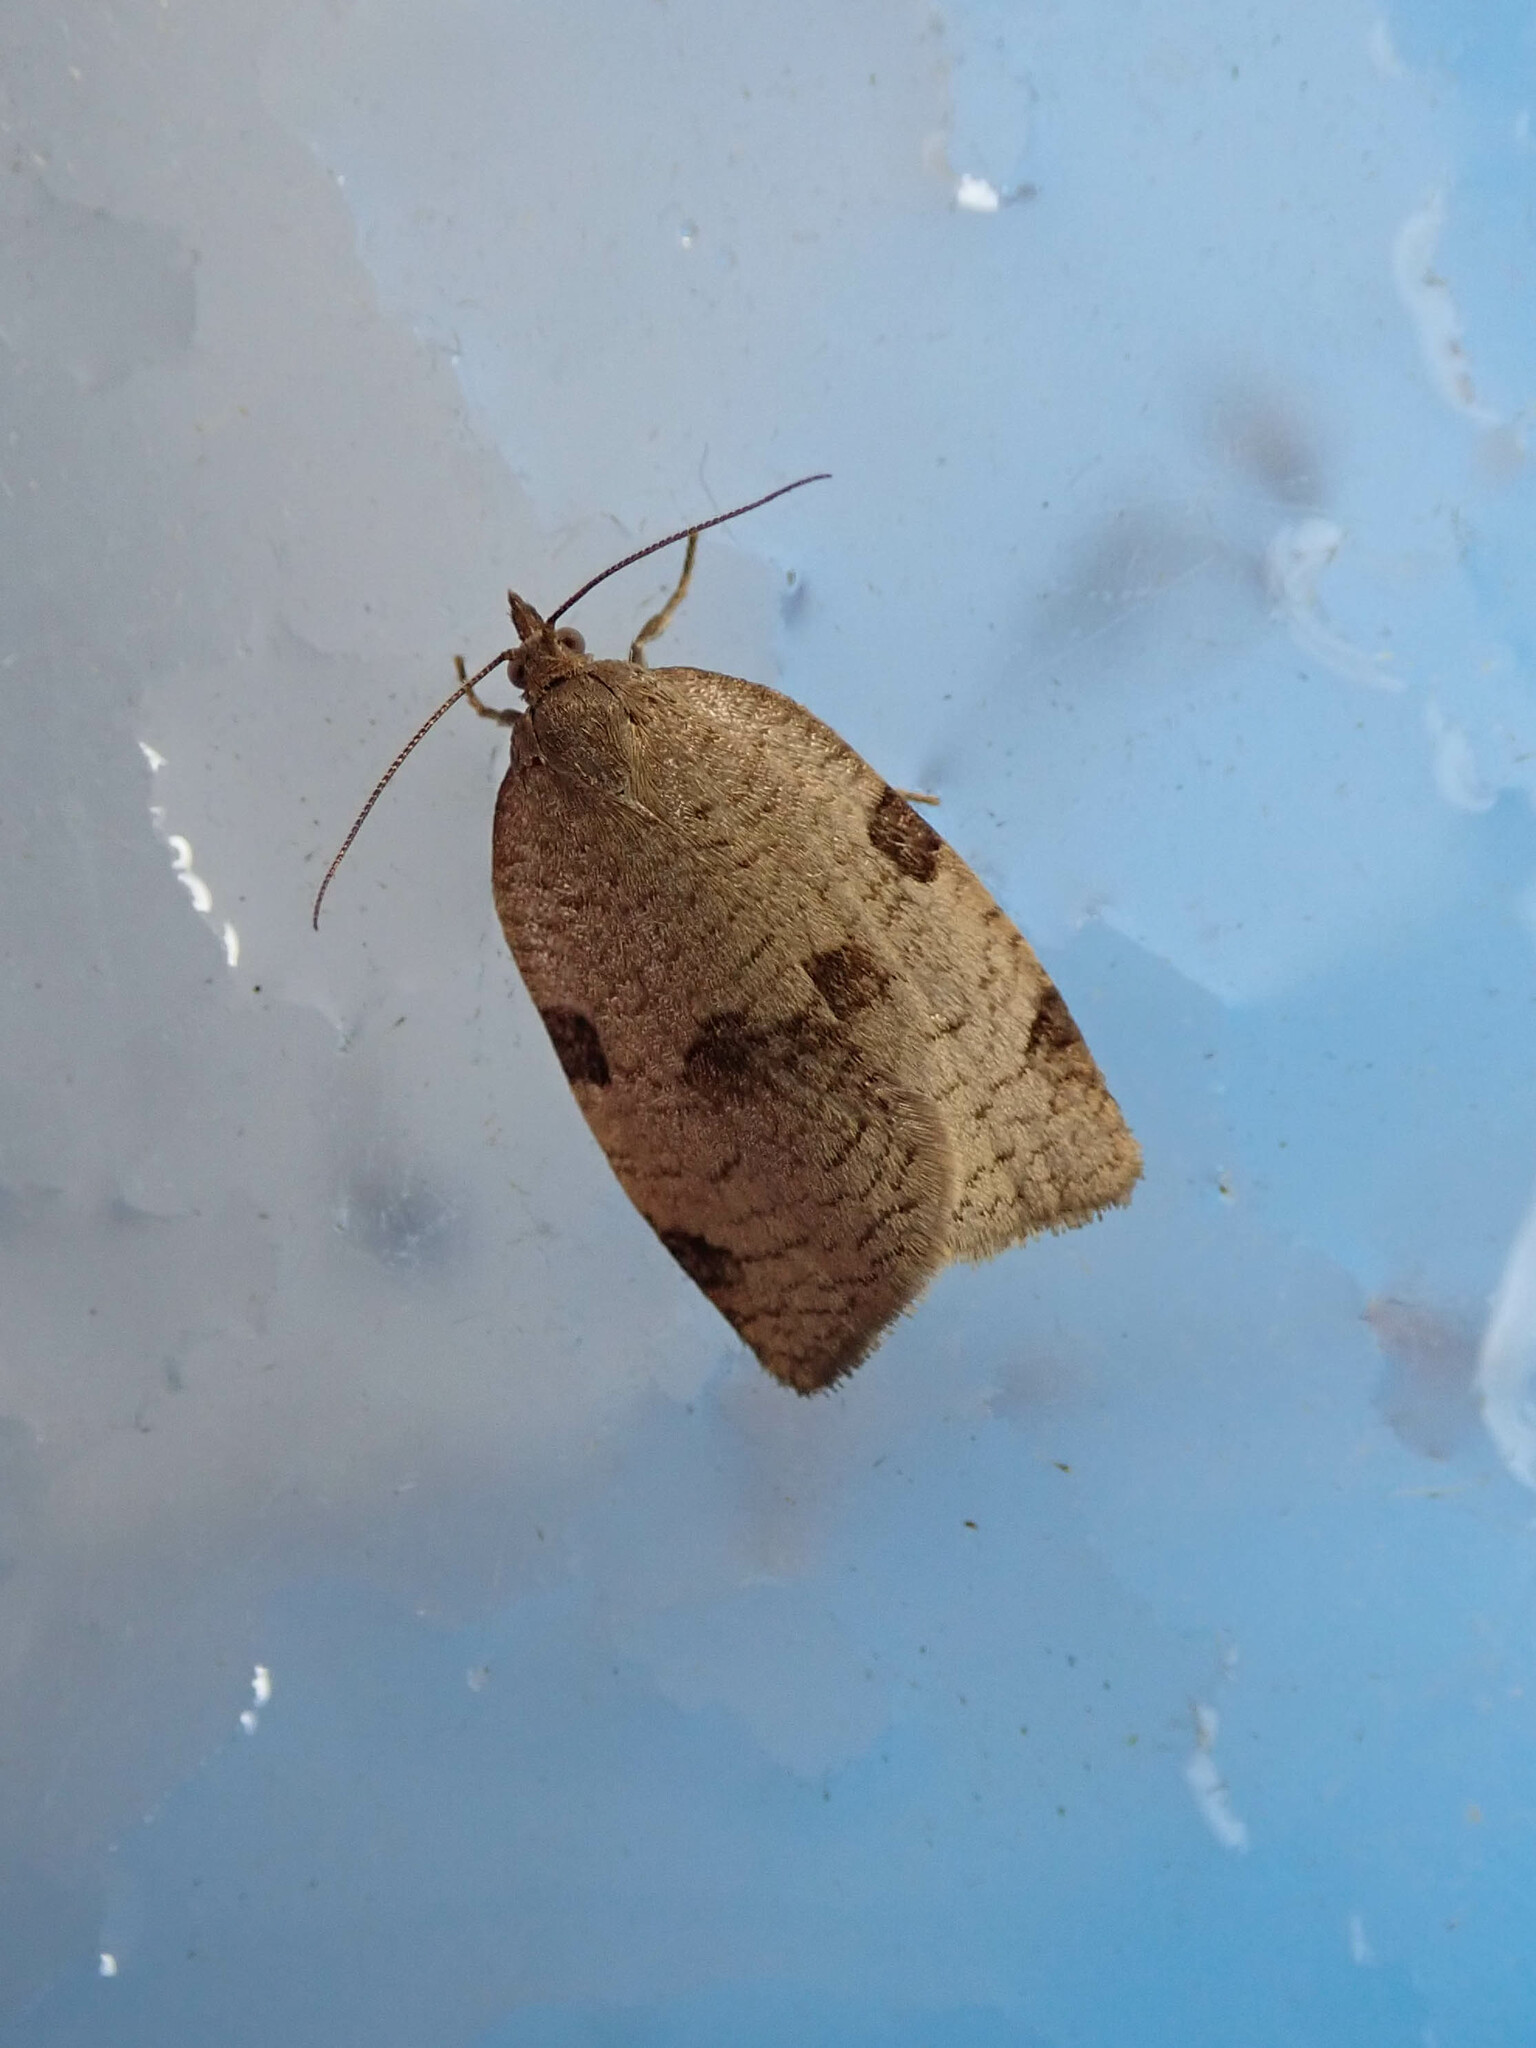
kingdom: Animalia
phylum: Arthropoda
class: Insecta
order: Lepidoptera
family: Tortricidae
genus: Lozotaenia
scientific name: Lozotaenia forsterana
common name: Large ivy twist
